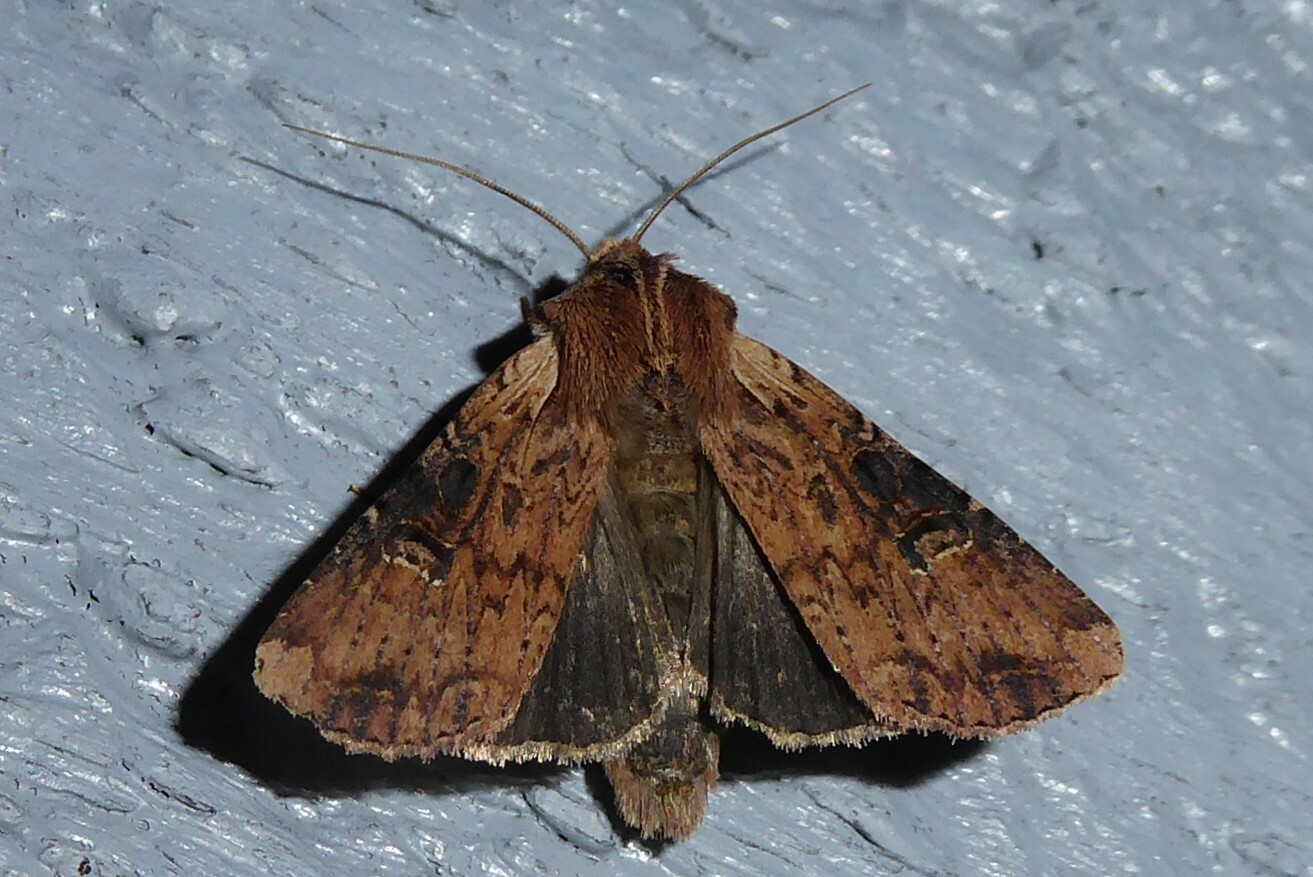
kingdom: Animalia
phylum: Arthropoda
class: Insecta
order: Lepidoptera
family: Noctuidae
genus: Ichneutica
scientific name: Ichneutica omoplaca
